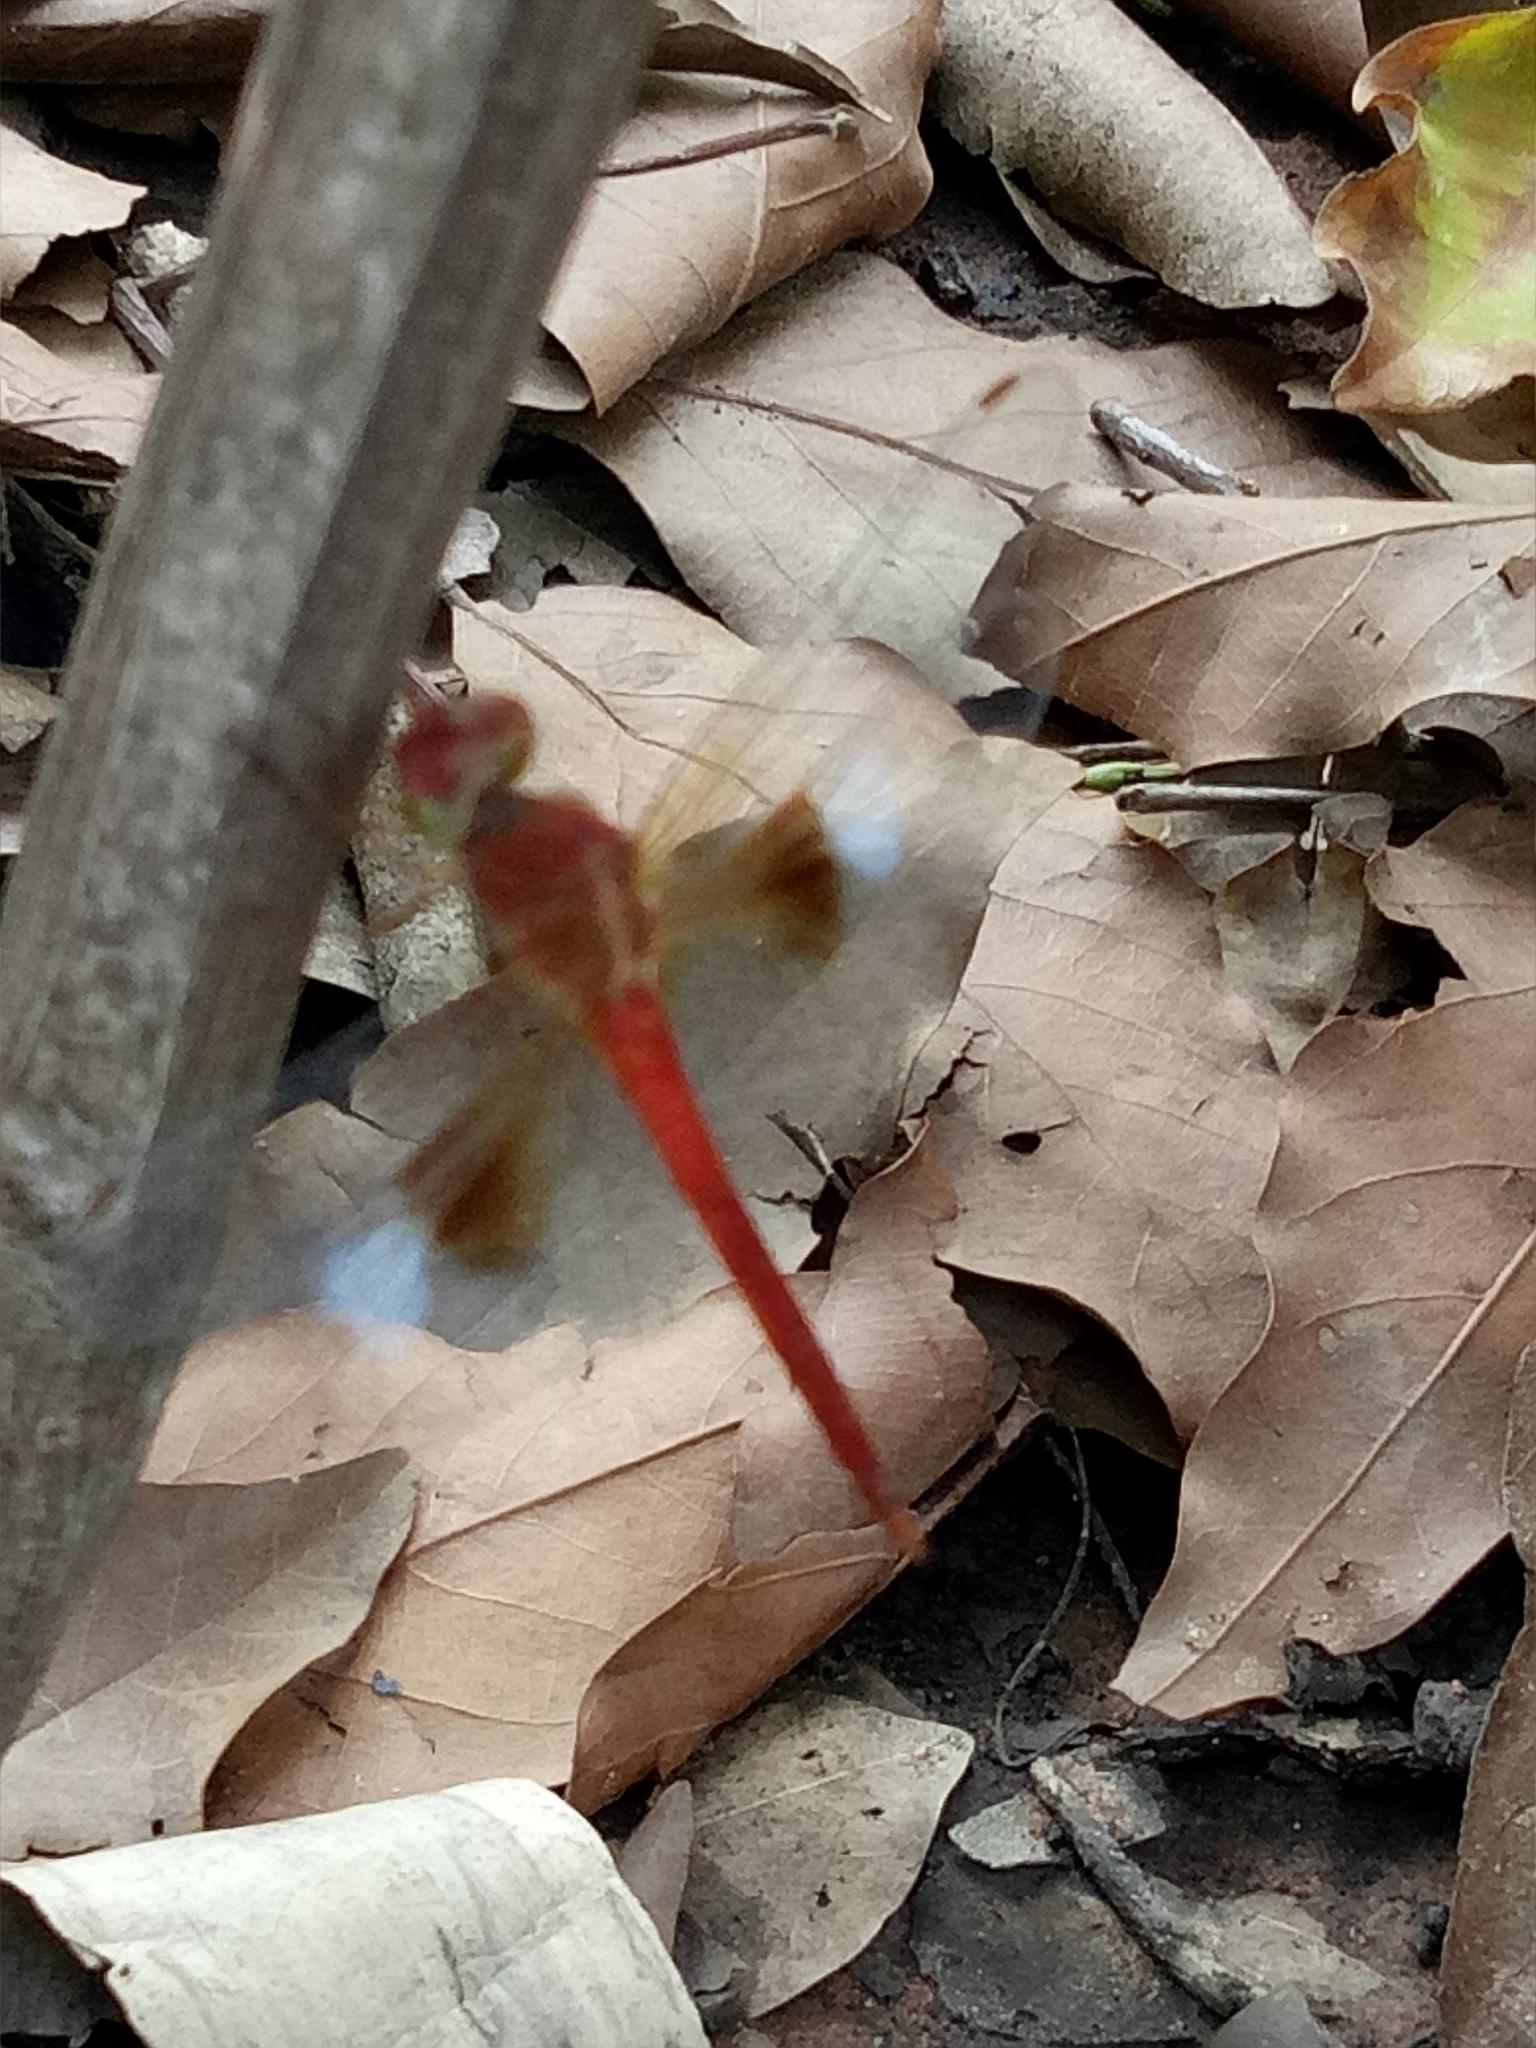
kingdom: Animalia
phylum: Arthropoda
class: Insecta
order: Odonata
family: Libellulidae
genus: Tholymis
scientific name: Tholymis tillarga
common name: Coral-tailed cloud wing
